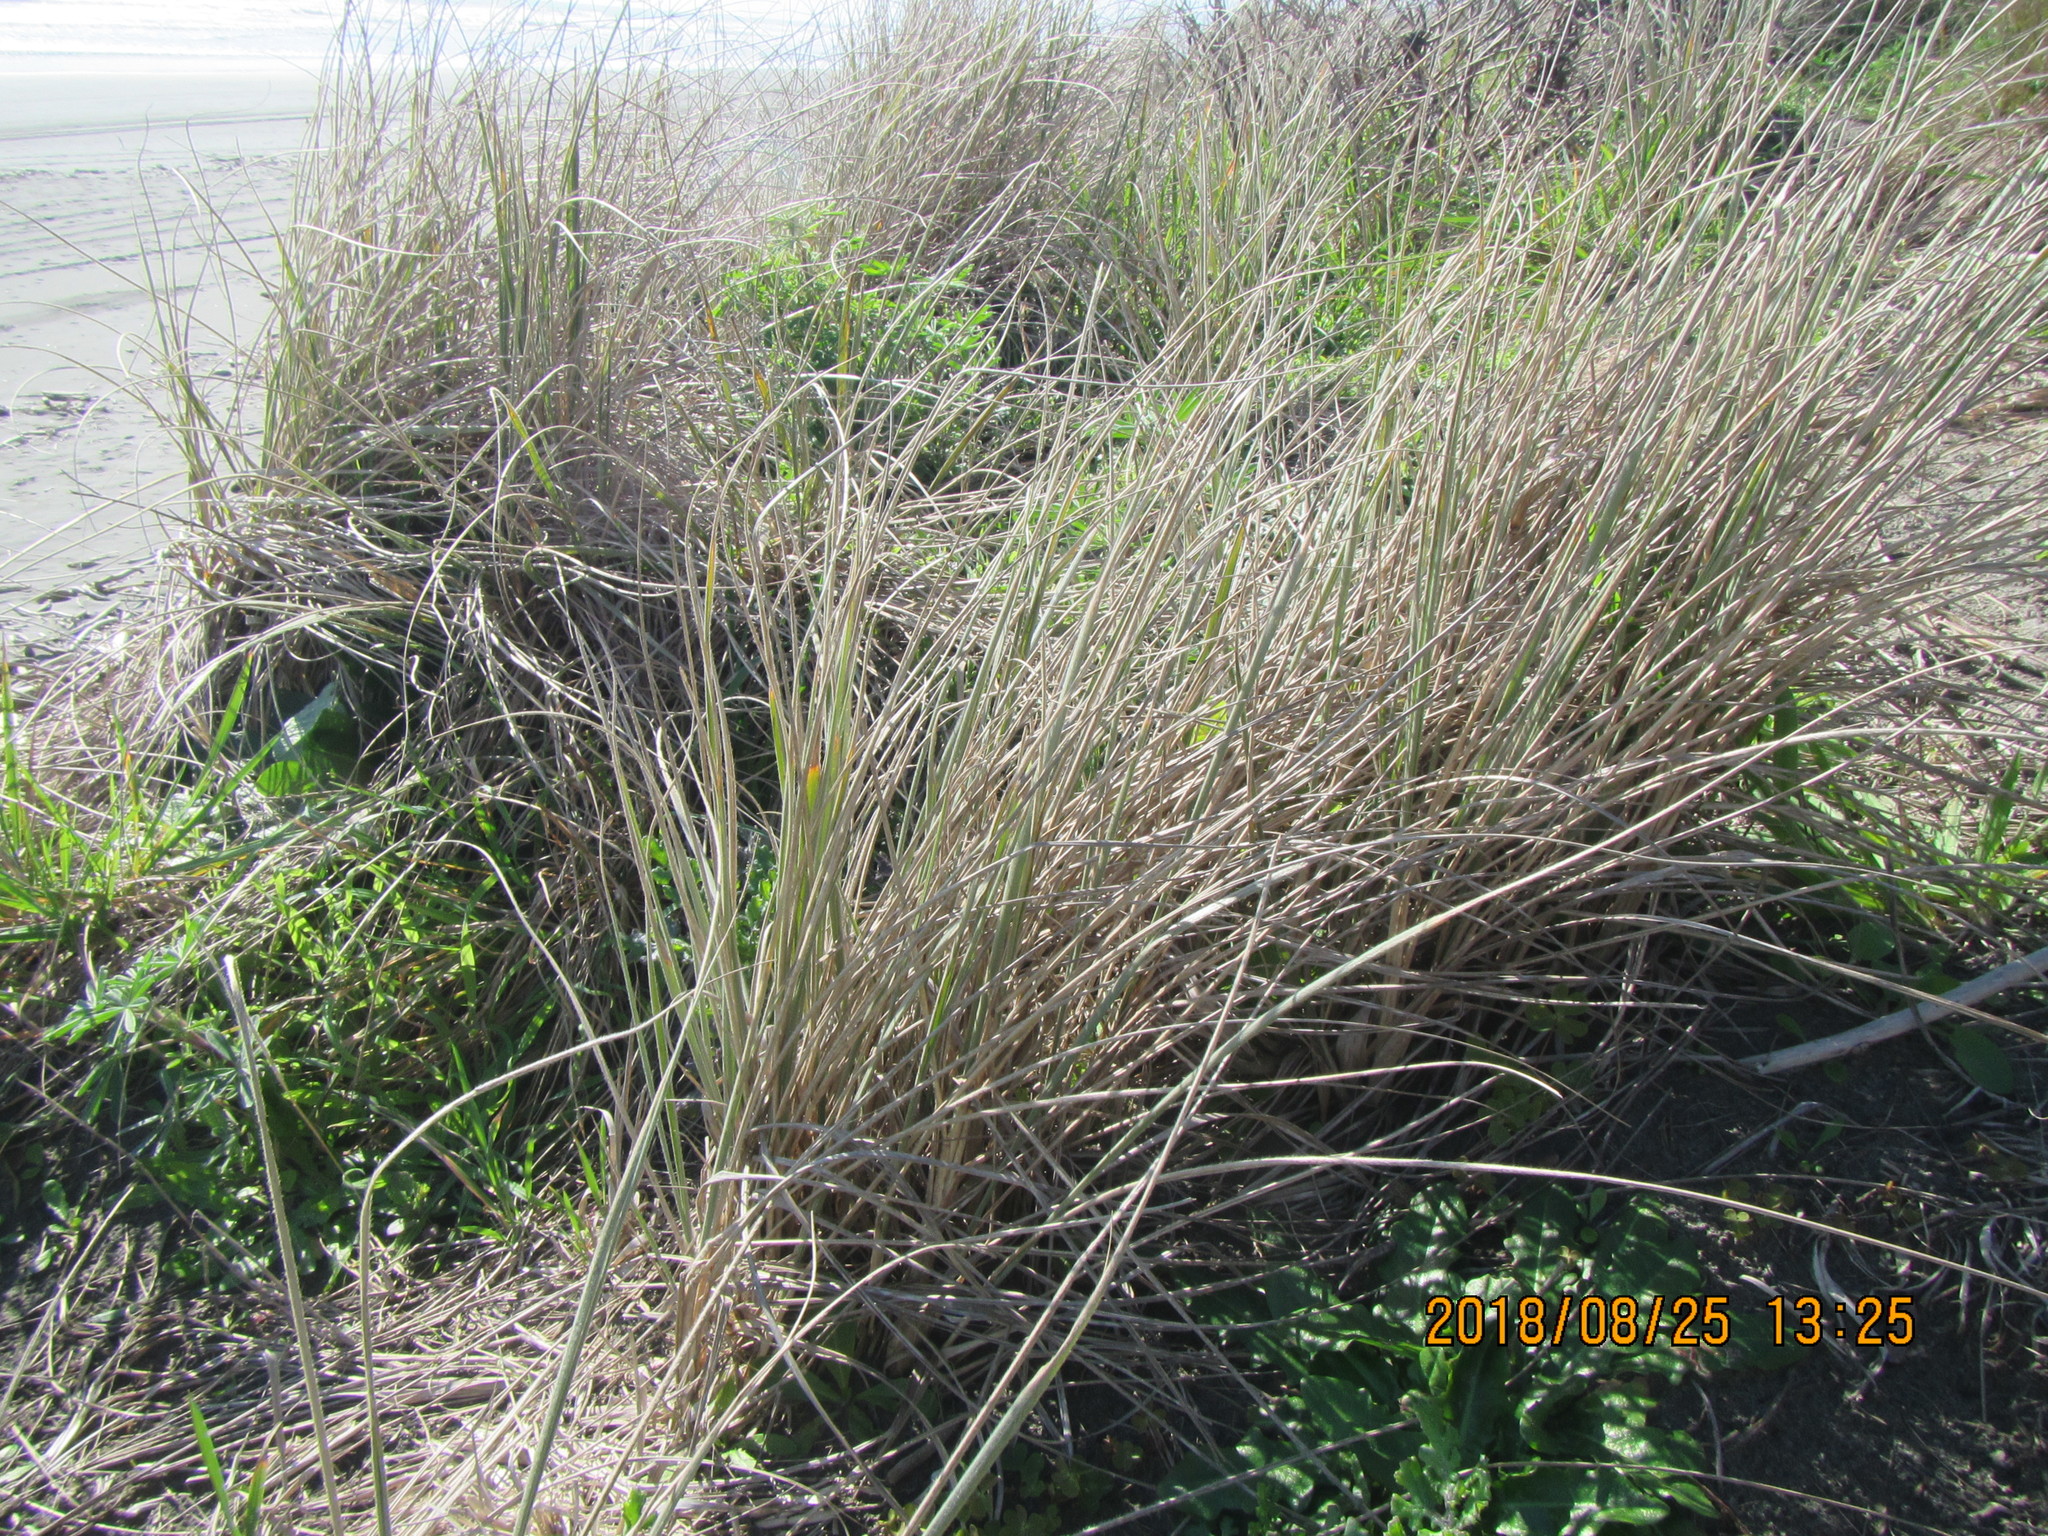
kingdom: Plantae
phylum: Tracheophyta
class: Liliopsida
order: Poales
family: Poaceae
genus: Spinifex
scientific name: Spinifex sericeus
